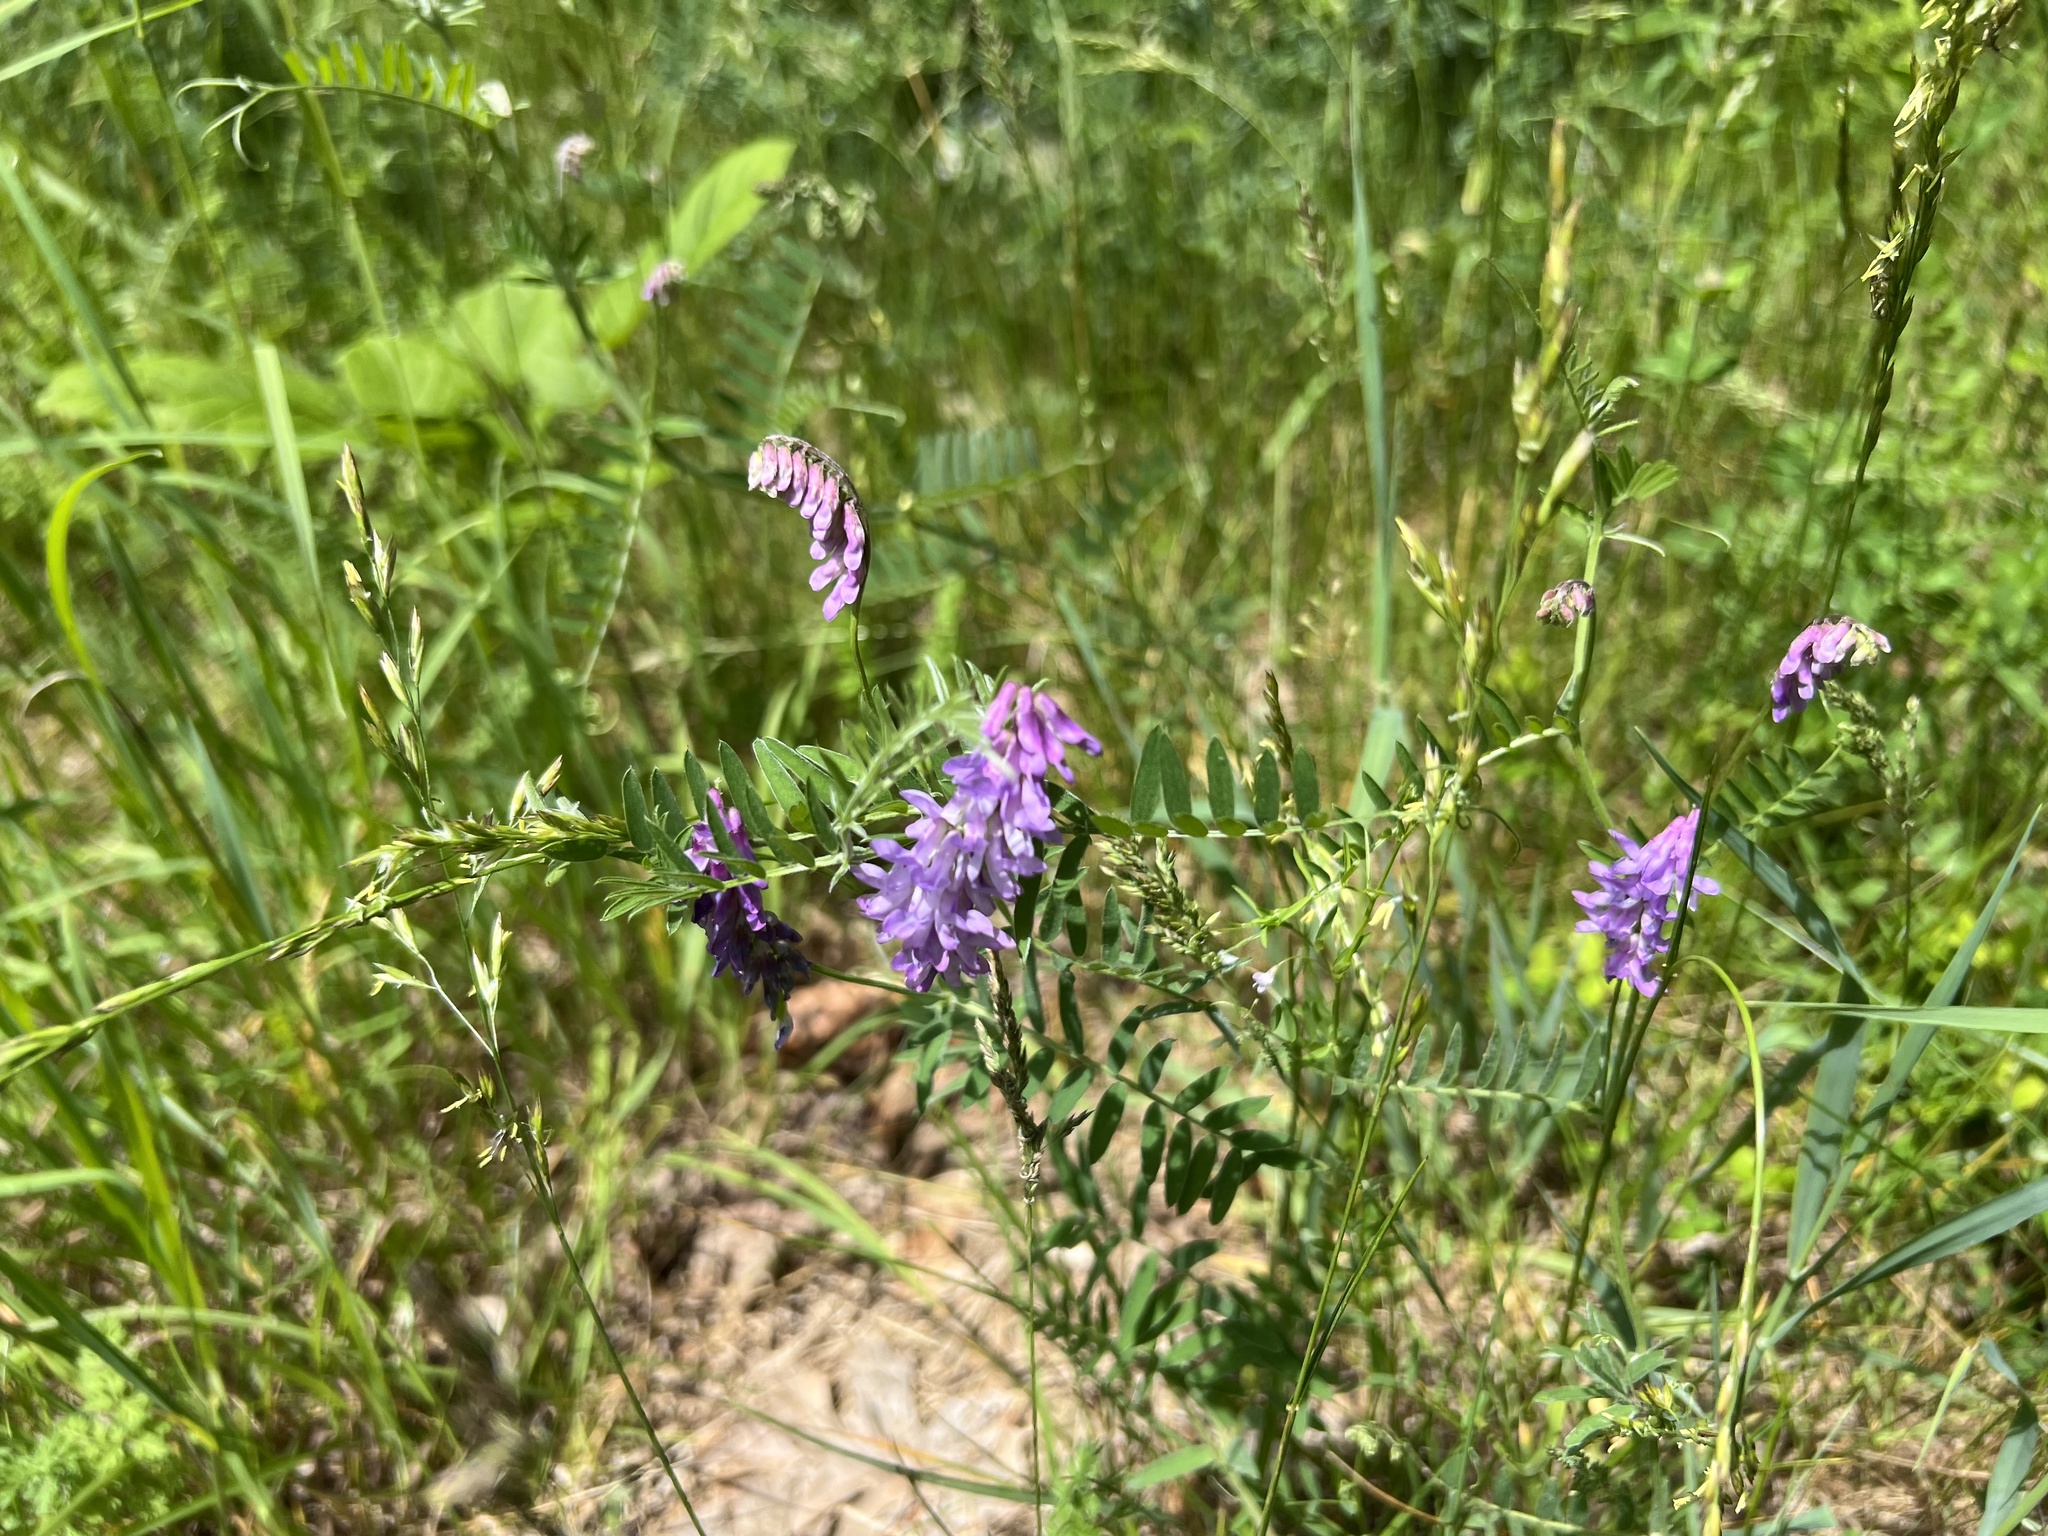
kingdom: Plantae
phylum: Tracheophyta
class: Magnoliopsida
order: Fabales
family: Fabaceae
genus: Vicia
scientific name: Vicia cracca
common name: Bird vetch
